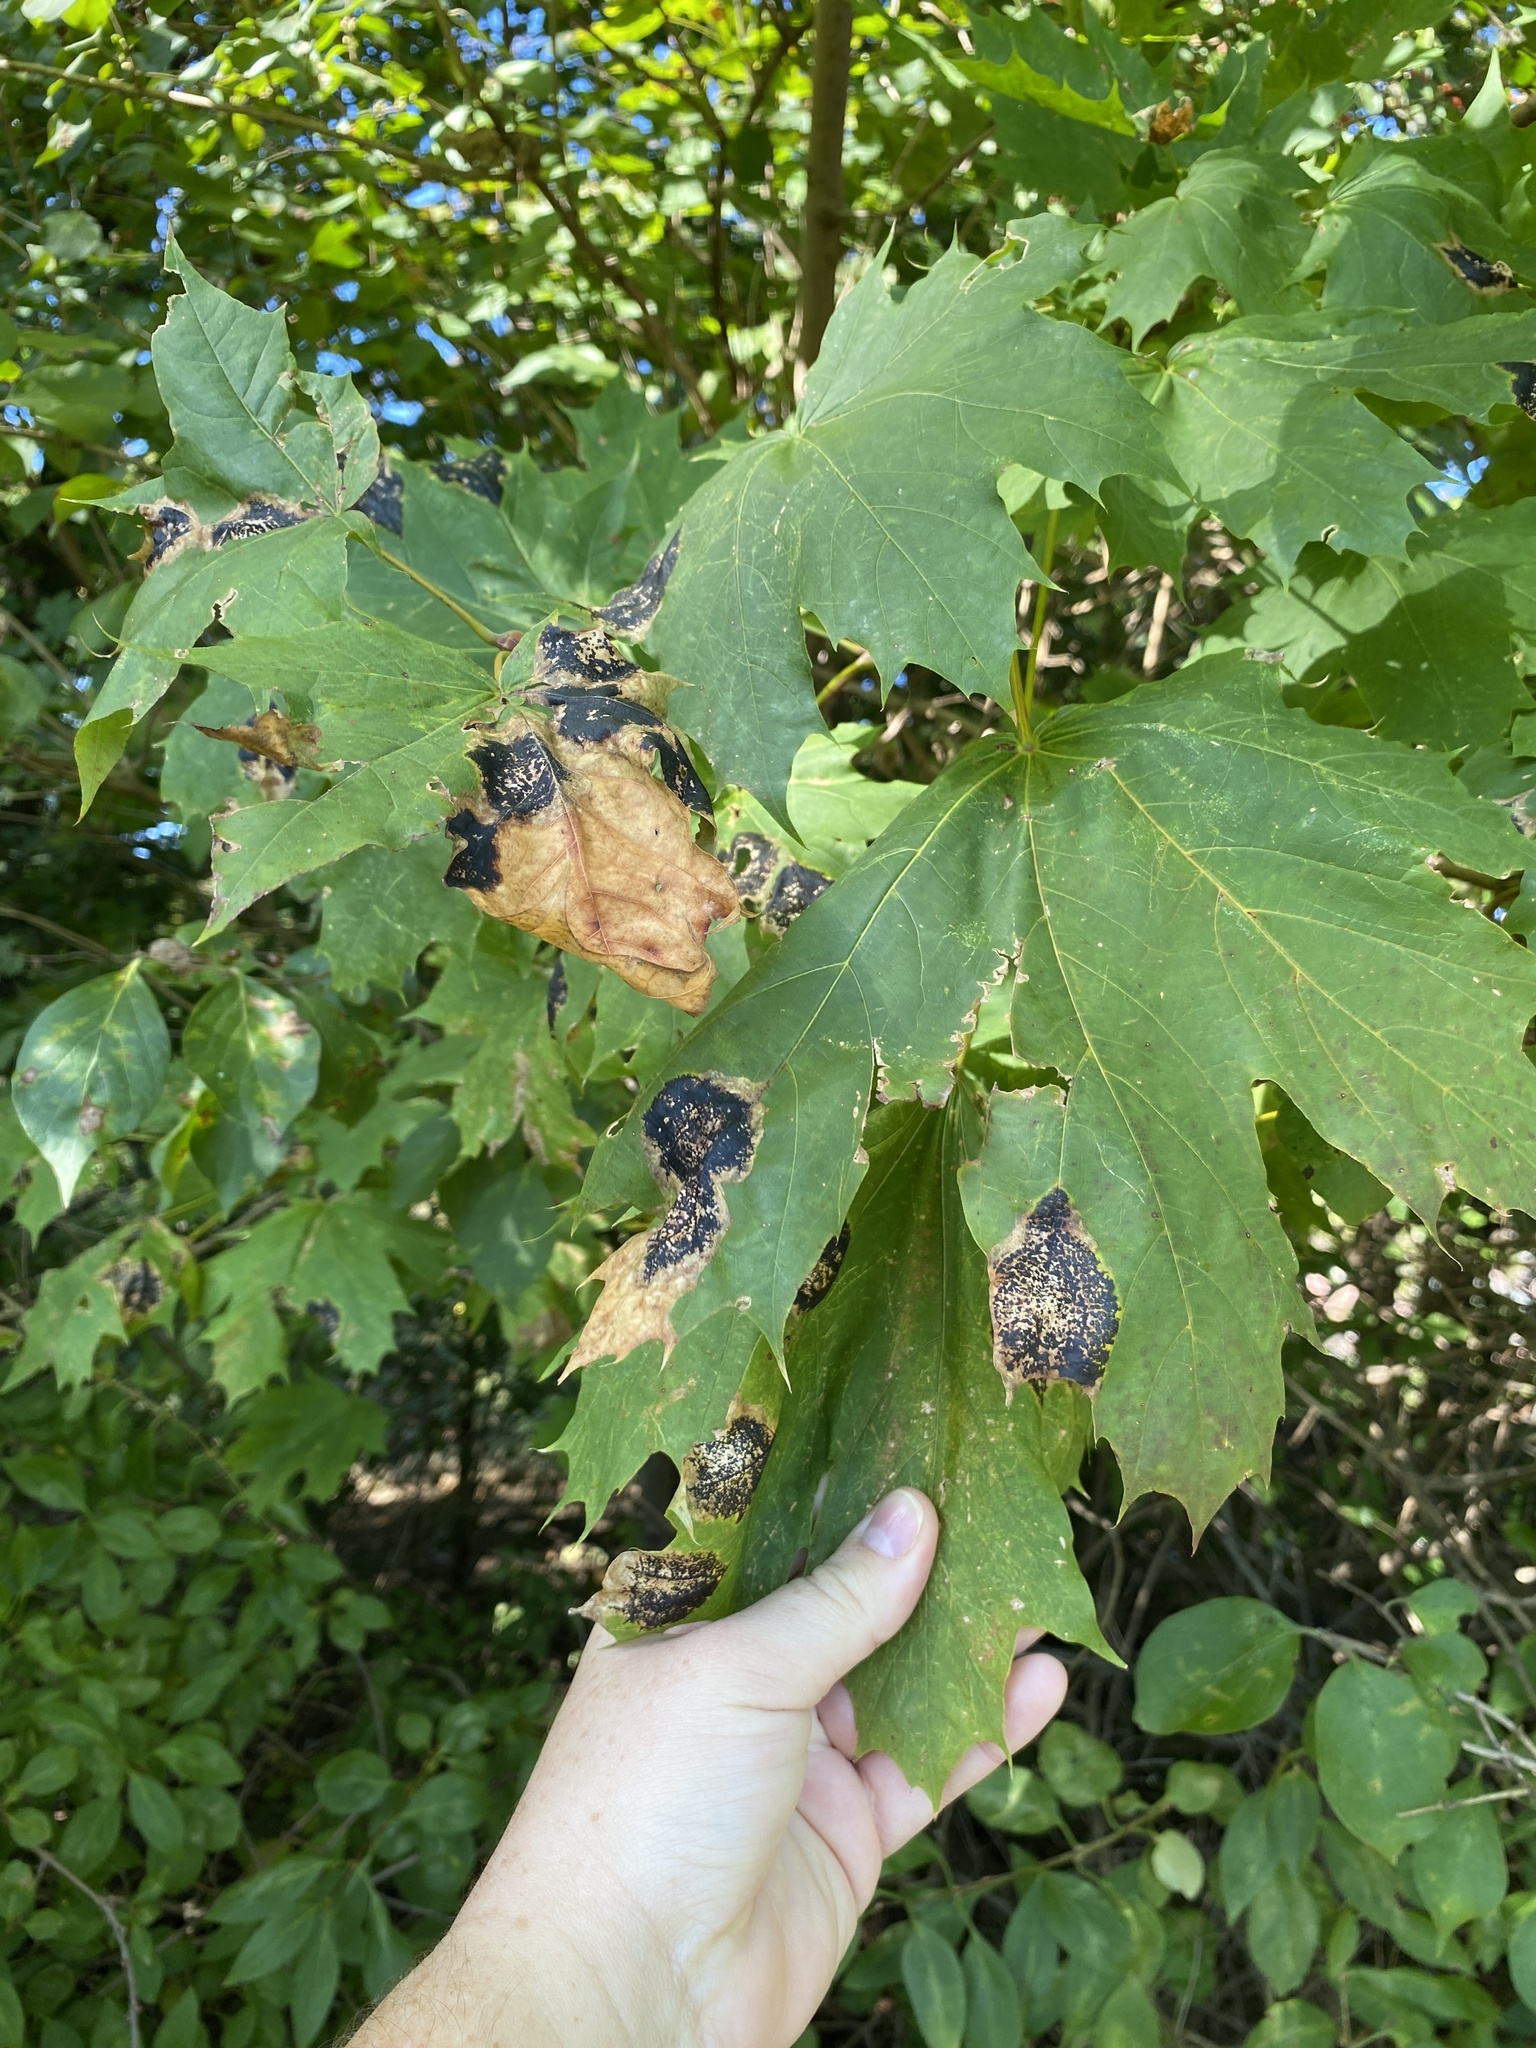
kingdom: Fungi
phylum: Ascomycota
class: Leotiomycetes
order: Rhytismatales
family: Rhytismataceae
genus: Rhytisma
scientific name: Rhytisma acerinum
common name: European tar spot
